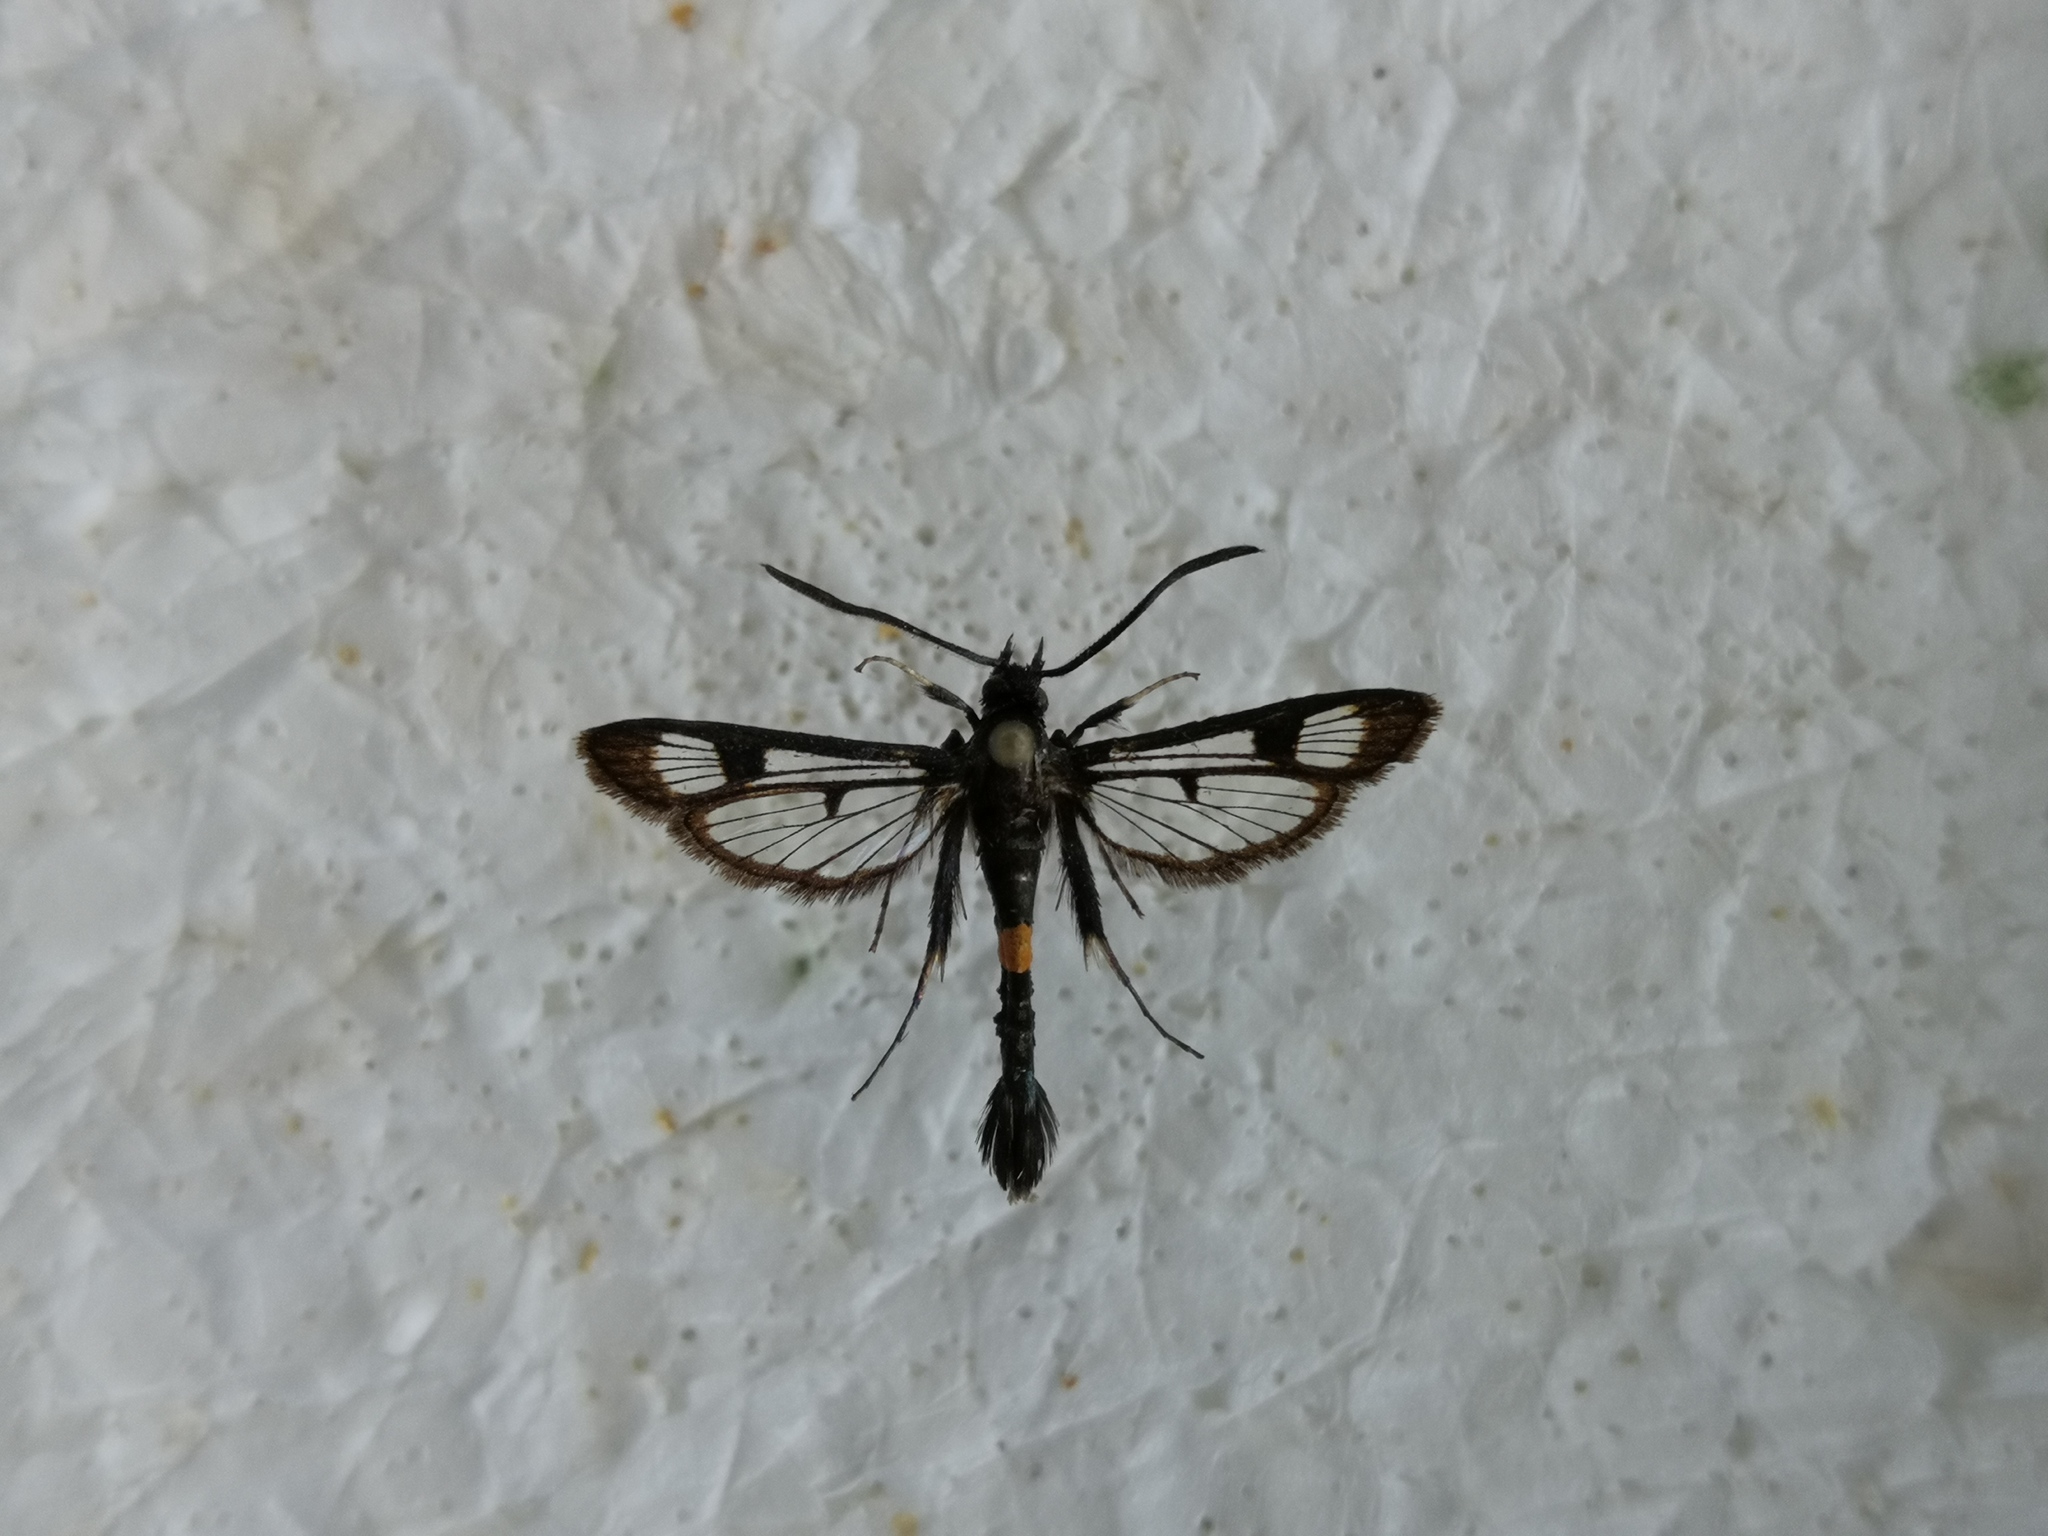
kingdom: Animalia
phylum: Arthropoda
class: Insecta
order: Lepidoptera
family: Sesiidae
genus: Synanthedon
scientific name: Synanthedon myopaeformis
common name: Red-belted clearwing
